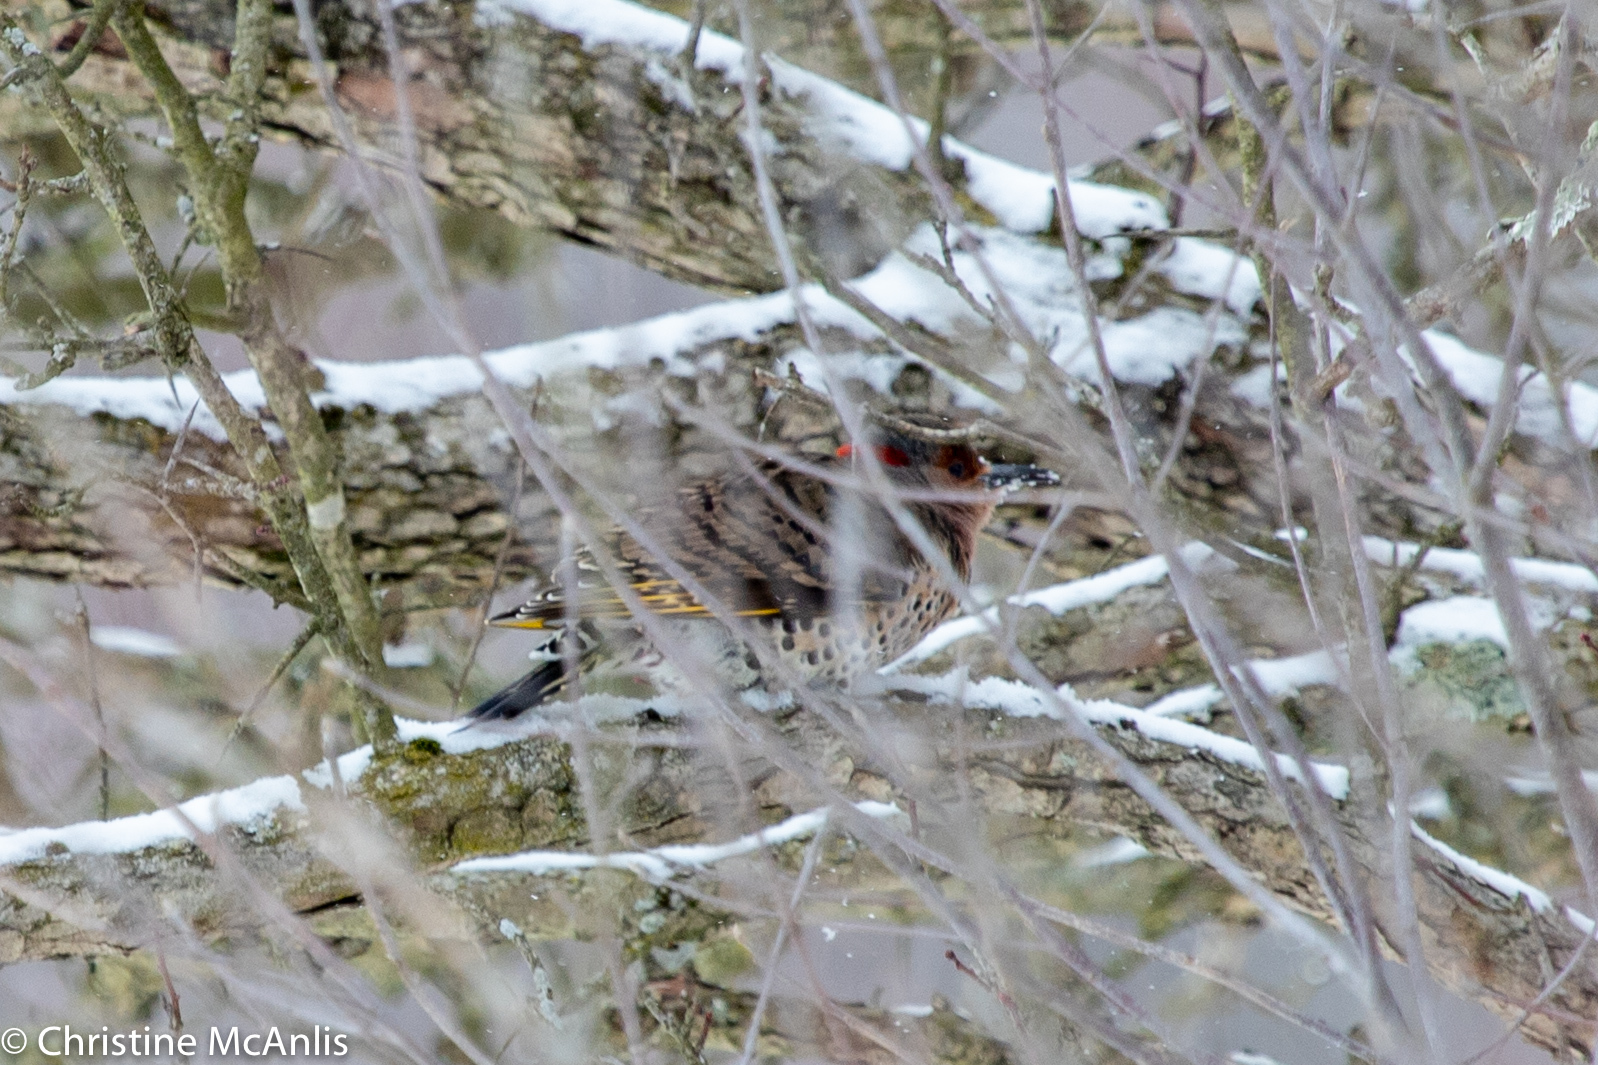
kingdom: Animalia
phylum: Chordata
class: Aves
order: Piciformes
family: Picidae
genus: Colaptes
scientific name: Colaptes auratus
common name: Northern flicker
